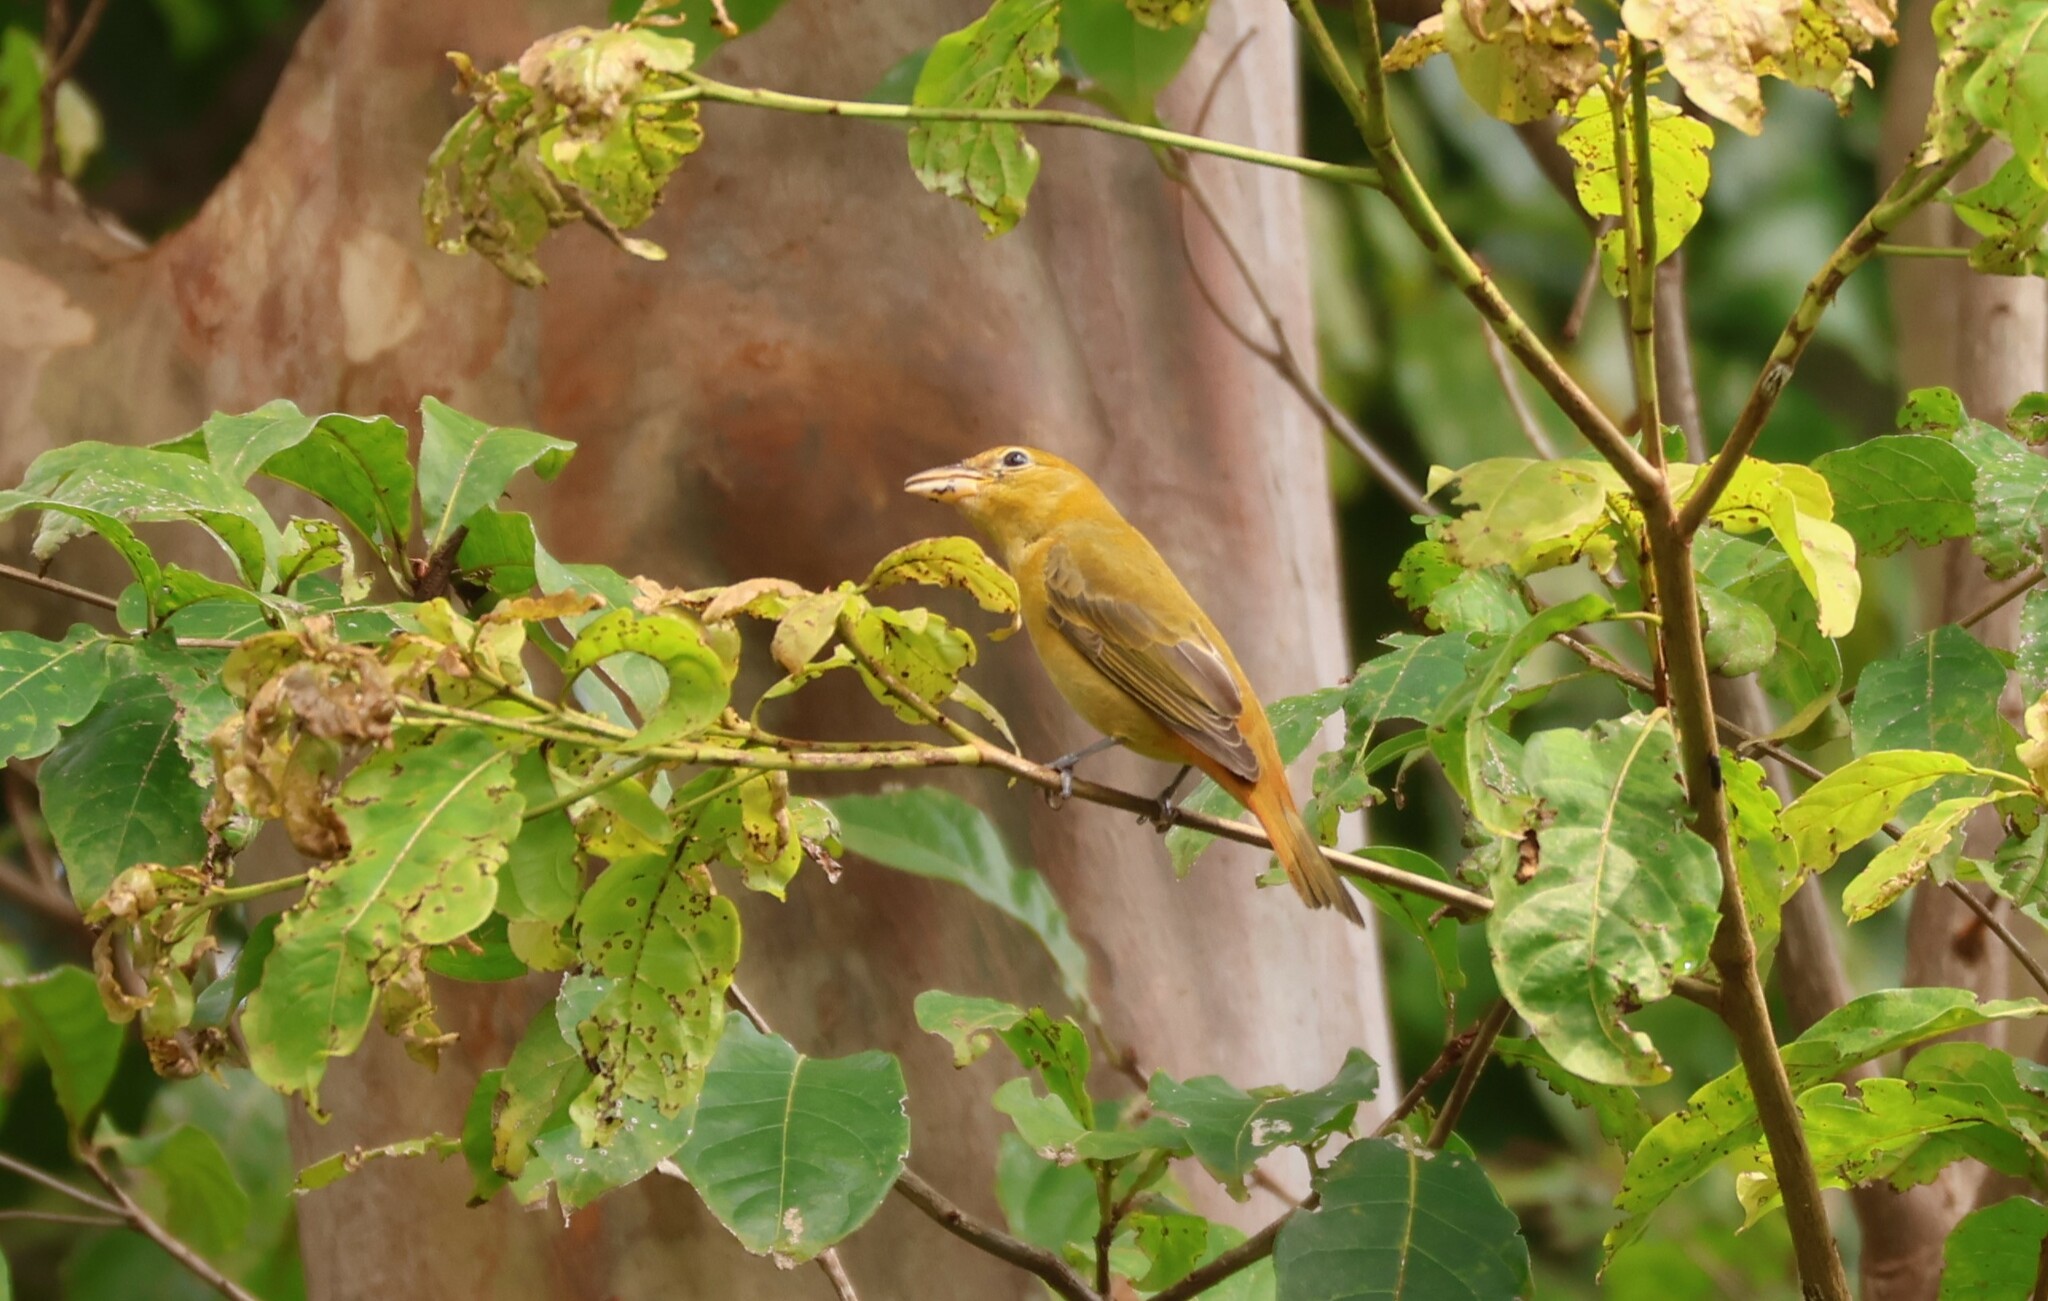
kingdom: Animalia
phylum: Chordata
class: Aves
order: Passeriformes
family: Cardinalidae
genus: Piranga
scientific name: Piranga rubra
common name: Summer tanager
